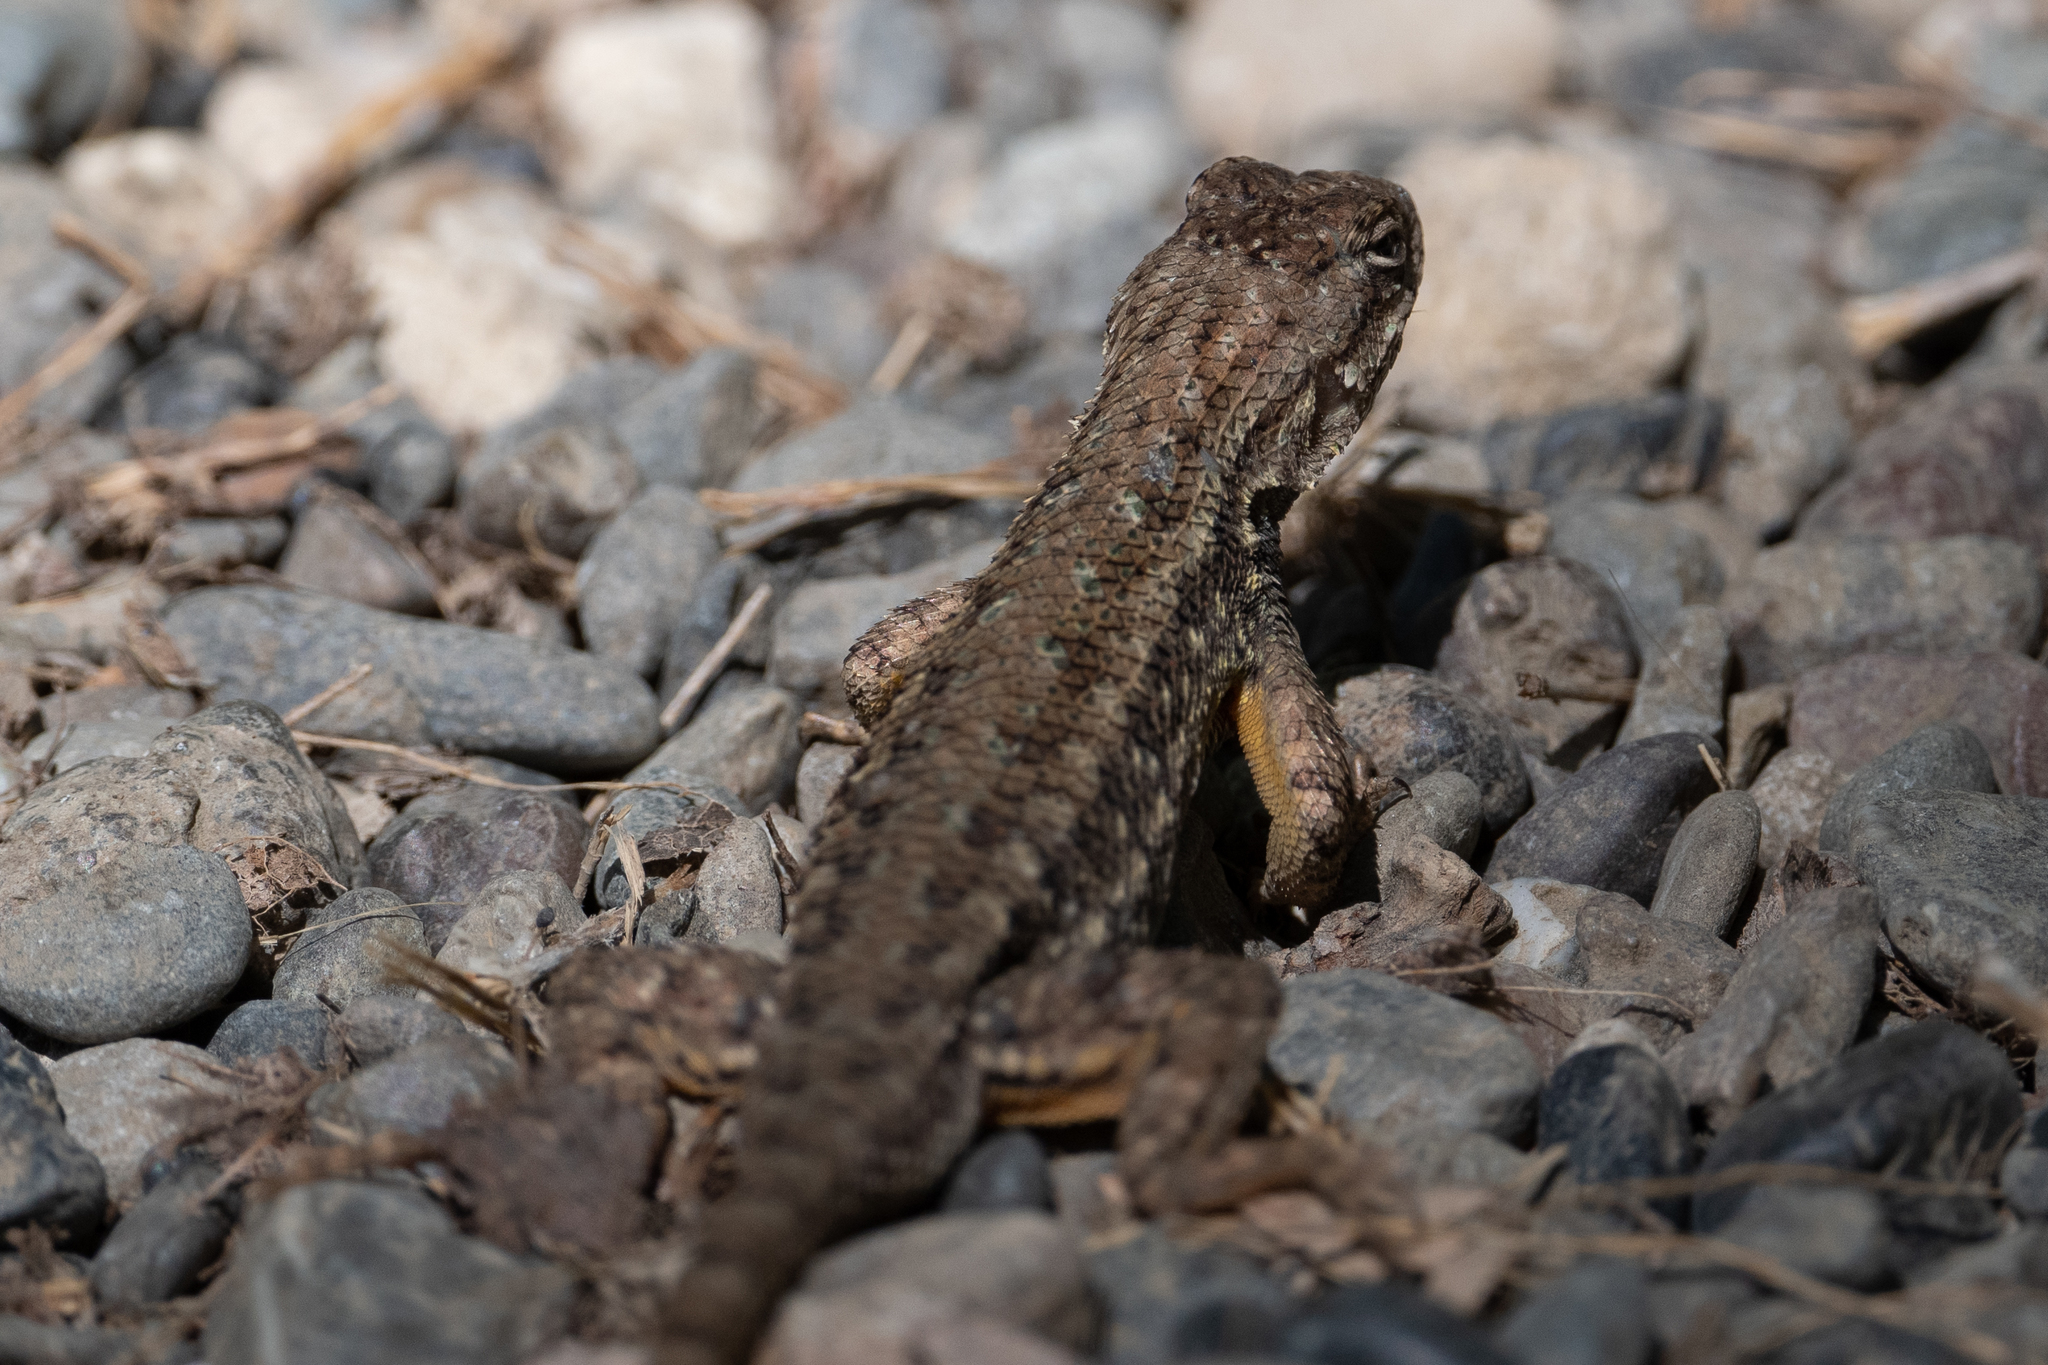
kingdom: Animalia
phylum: Chordata
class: Squamata
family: Phrynosomatidae
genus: Sceloporus
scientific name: Sceloporus occidentalis
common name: Western fence lizard
